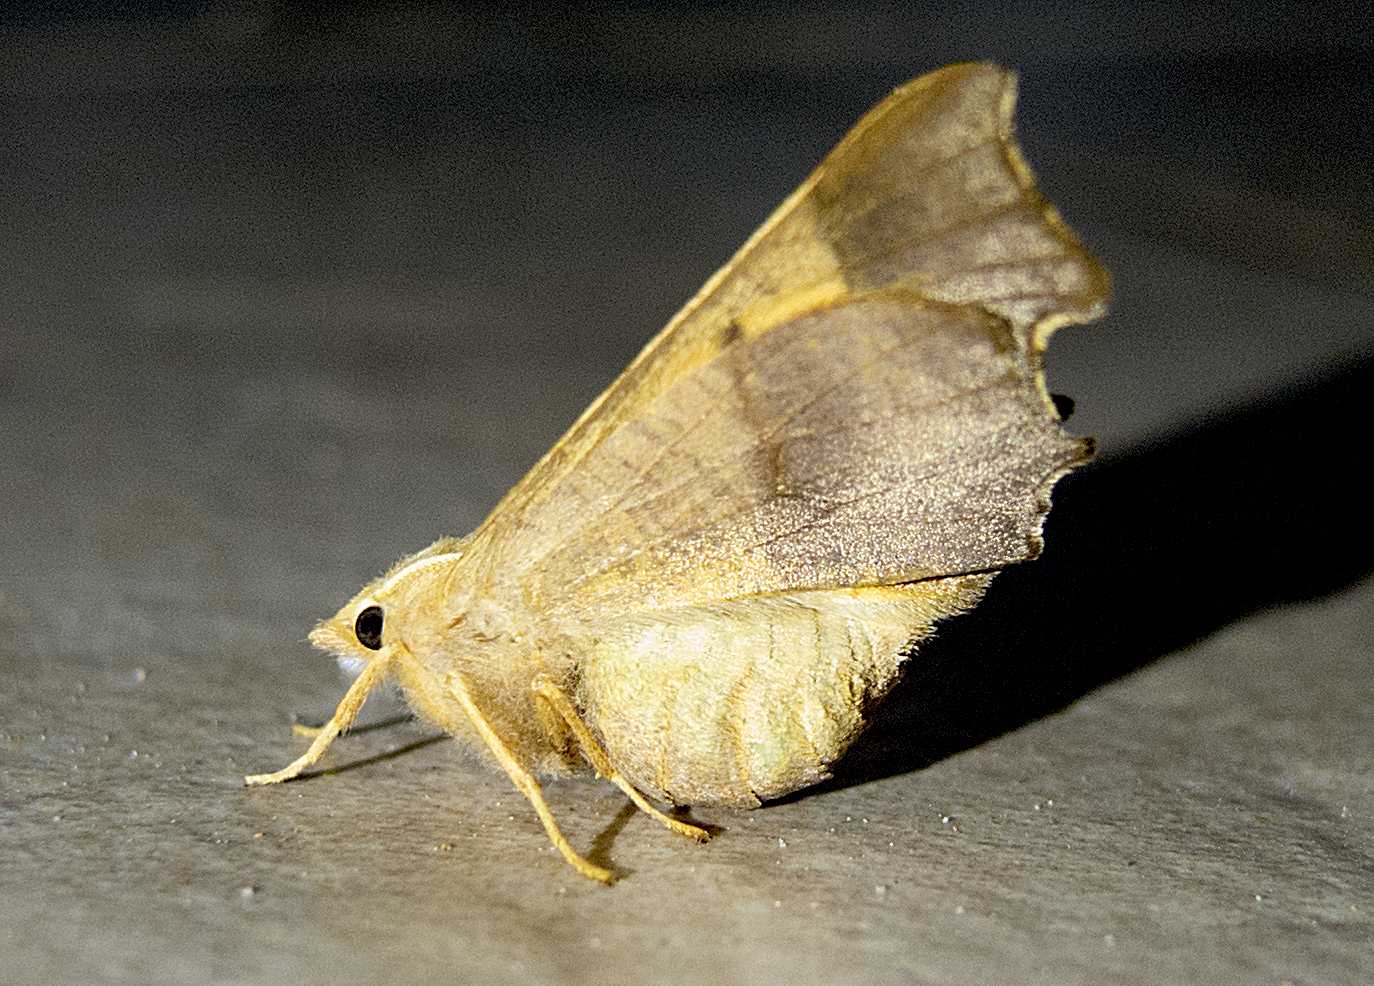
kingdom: Animalia
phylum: Arthropoda
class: Insecta
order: Lepidoptera
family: Geometridae
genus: Ennomos
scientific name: Ennomos fuscantaria
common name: Dusky thorn
